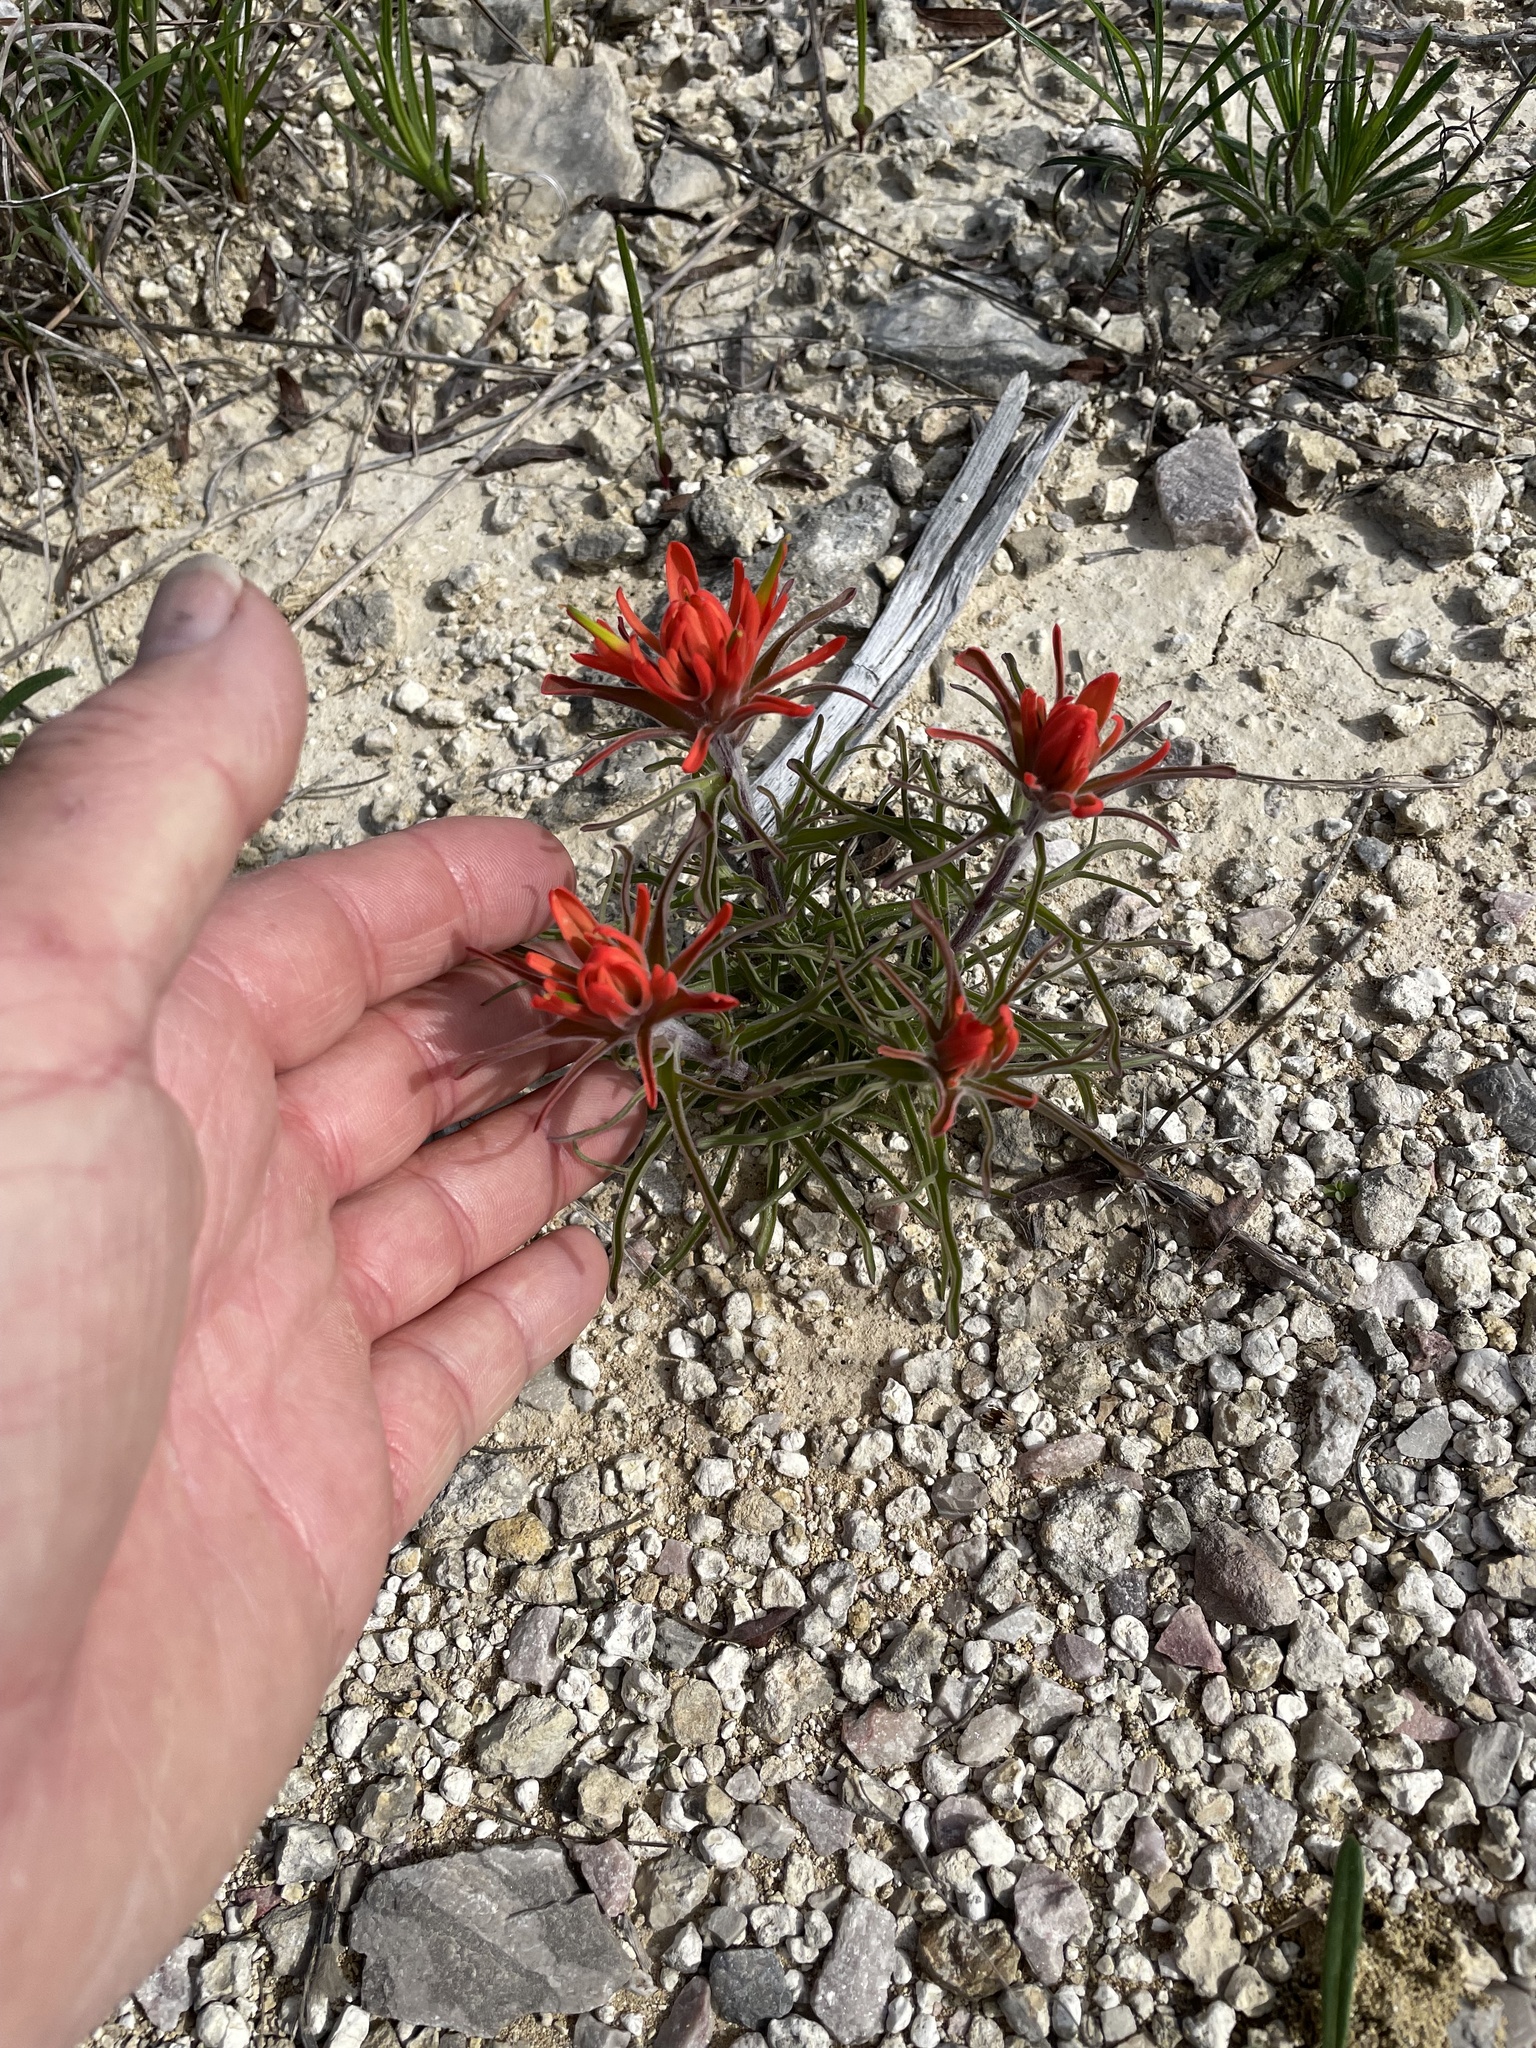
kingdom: Plantae
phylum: Tracheophyta
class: Magnoliopsida
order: Lamiales
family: Orobanchaceae
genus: Castilleja
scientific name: Castilleja lindheimeri
